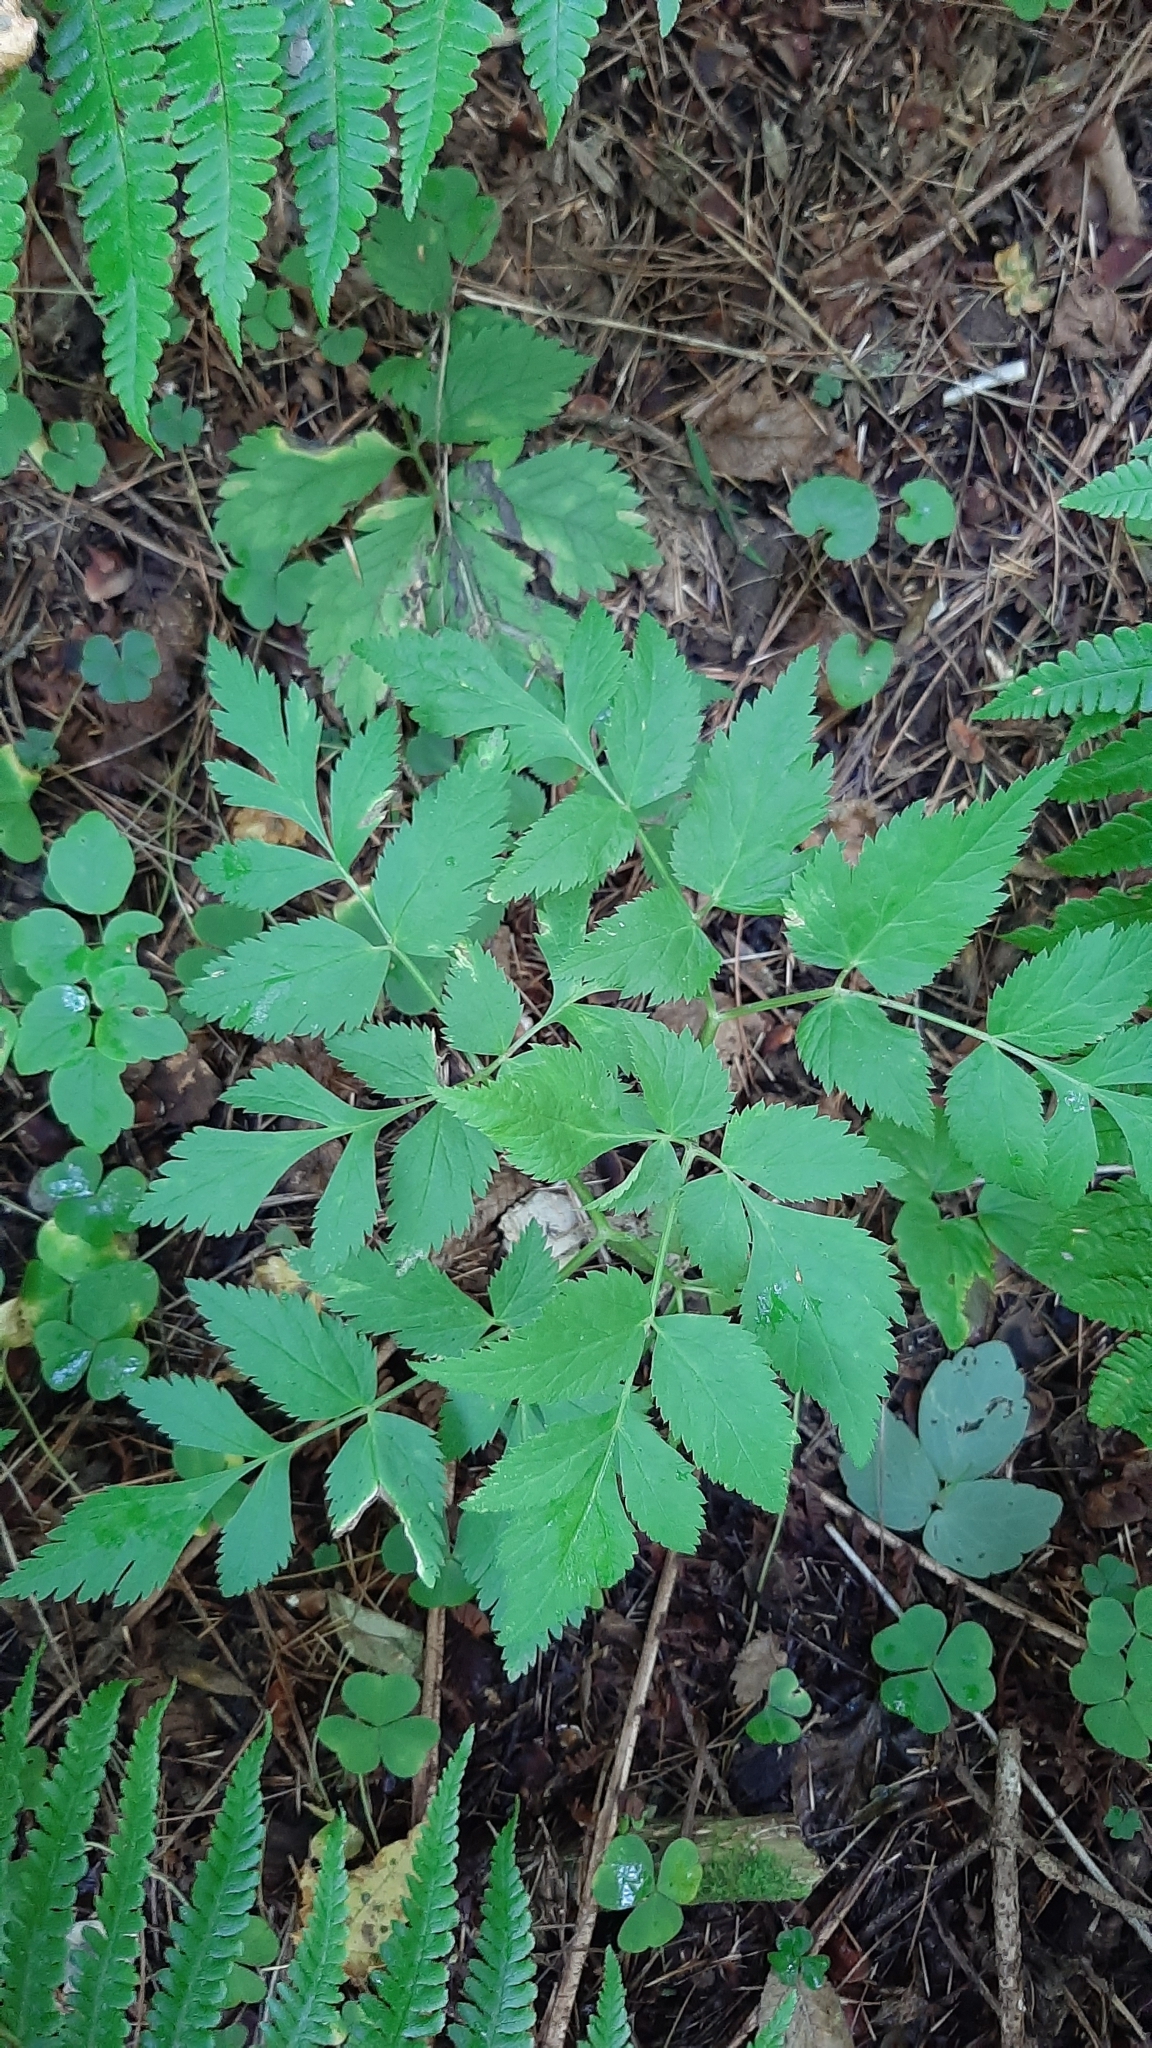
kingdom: Plantae
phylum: Tracheophyta
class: Magnoliopsida
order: Apiales
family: Apiaceae
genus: Aegopodium
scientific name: Aegopodium alpestre
